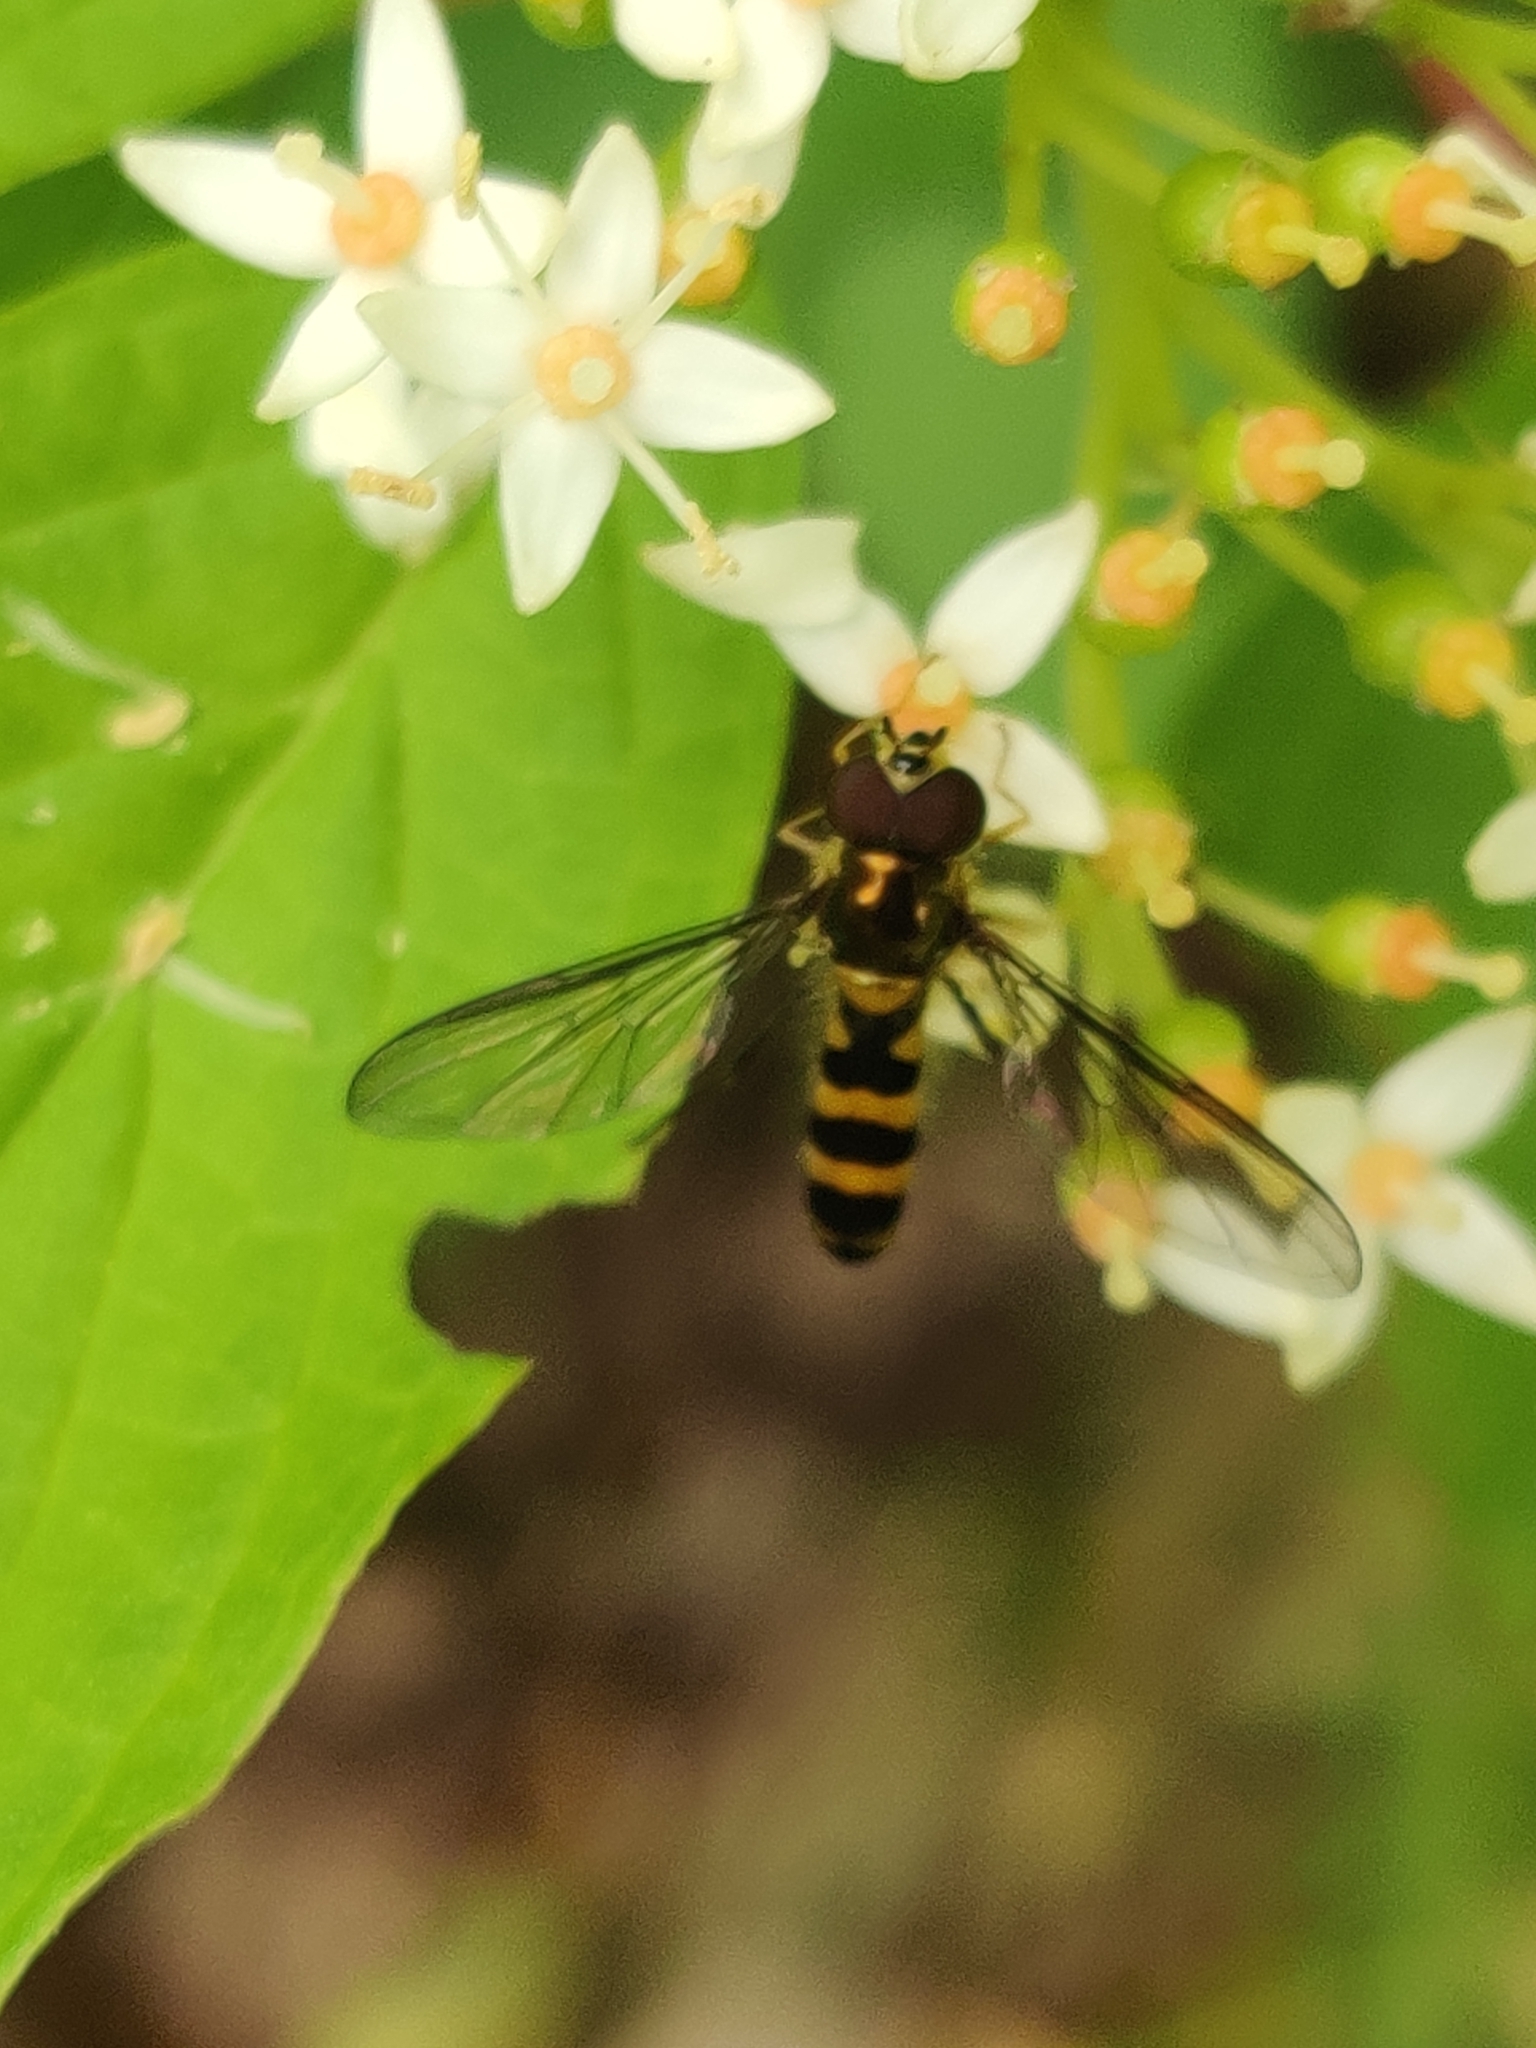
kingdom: Animalia
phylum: Arthropoda
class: Insecta
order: Diptera
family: Syrphidae
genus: Meliscaeva
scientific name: Meliscaeva cinctella
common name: American thintail fly
